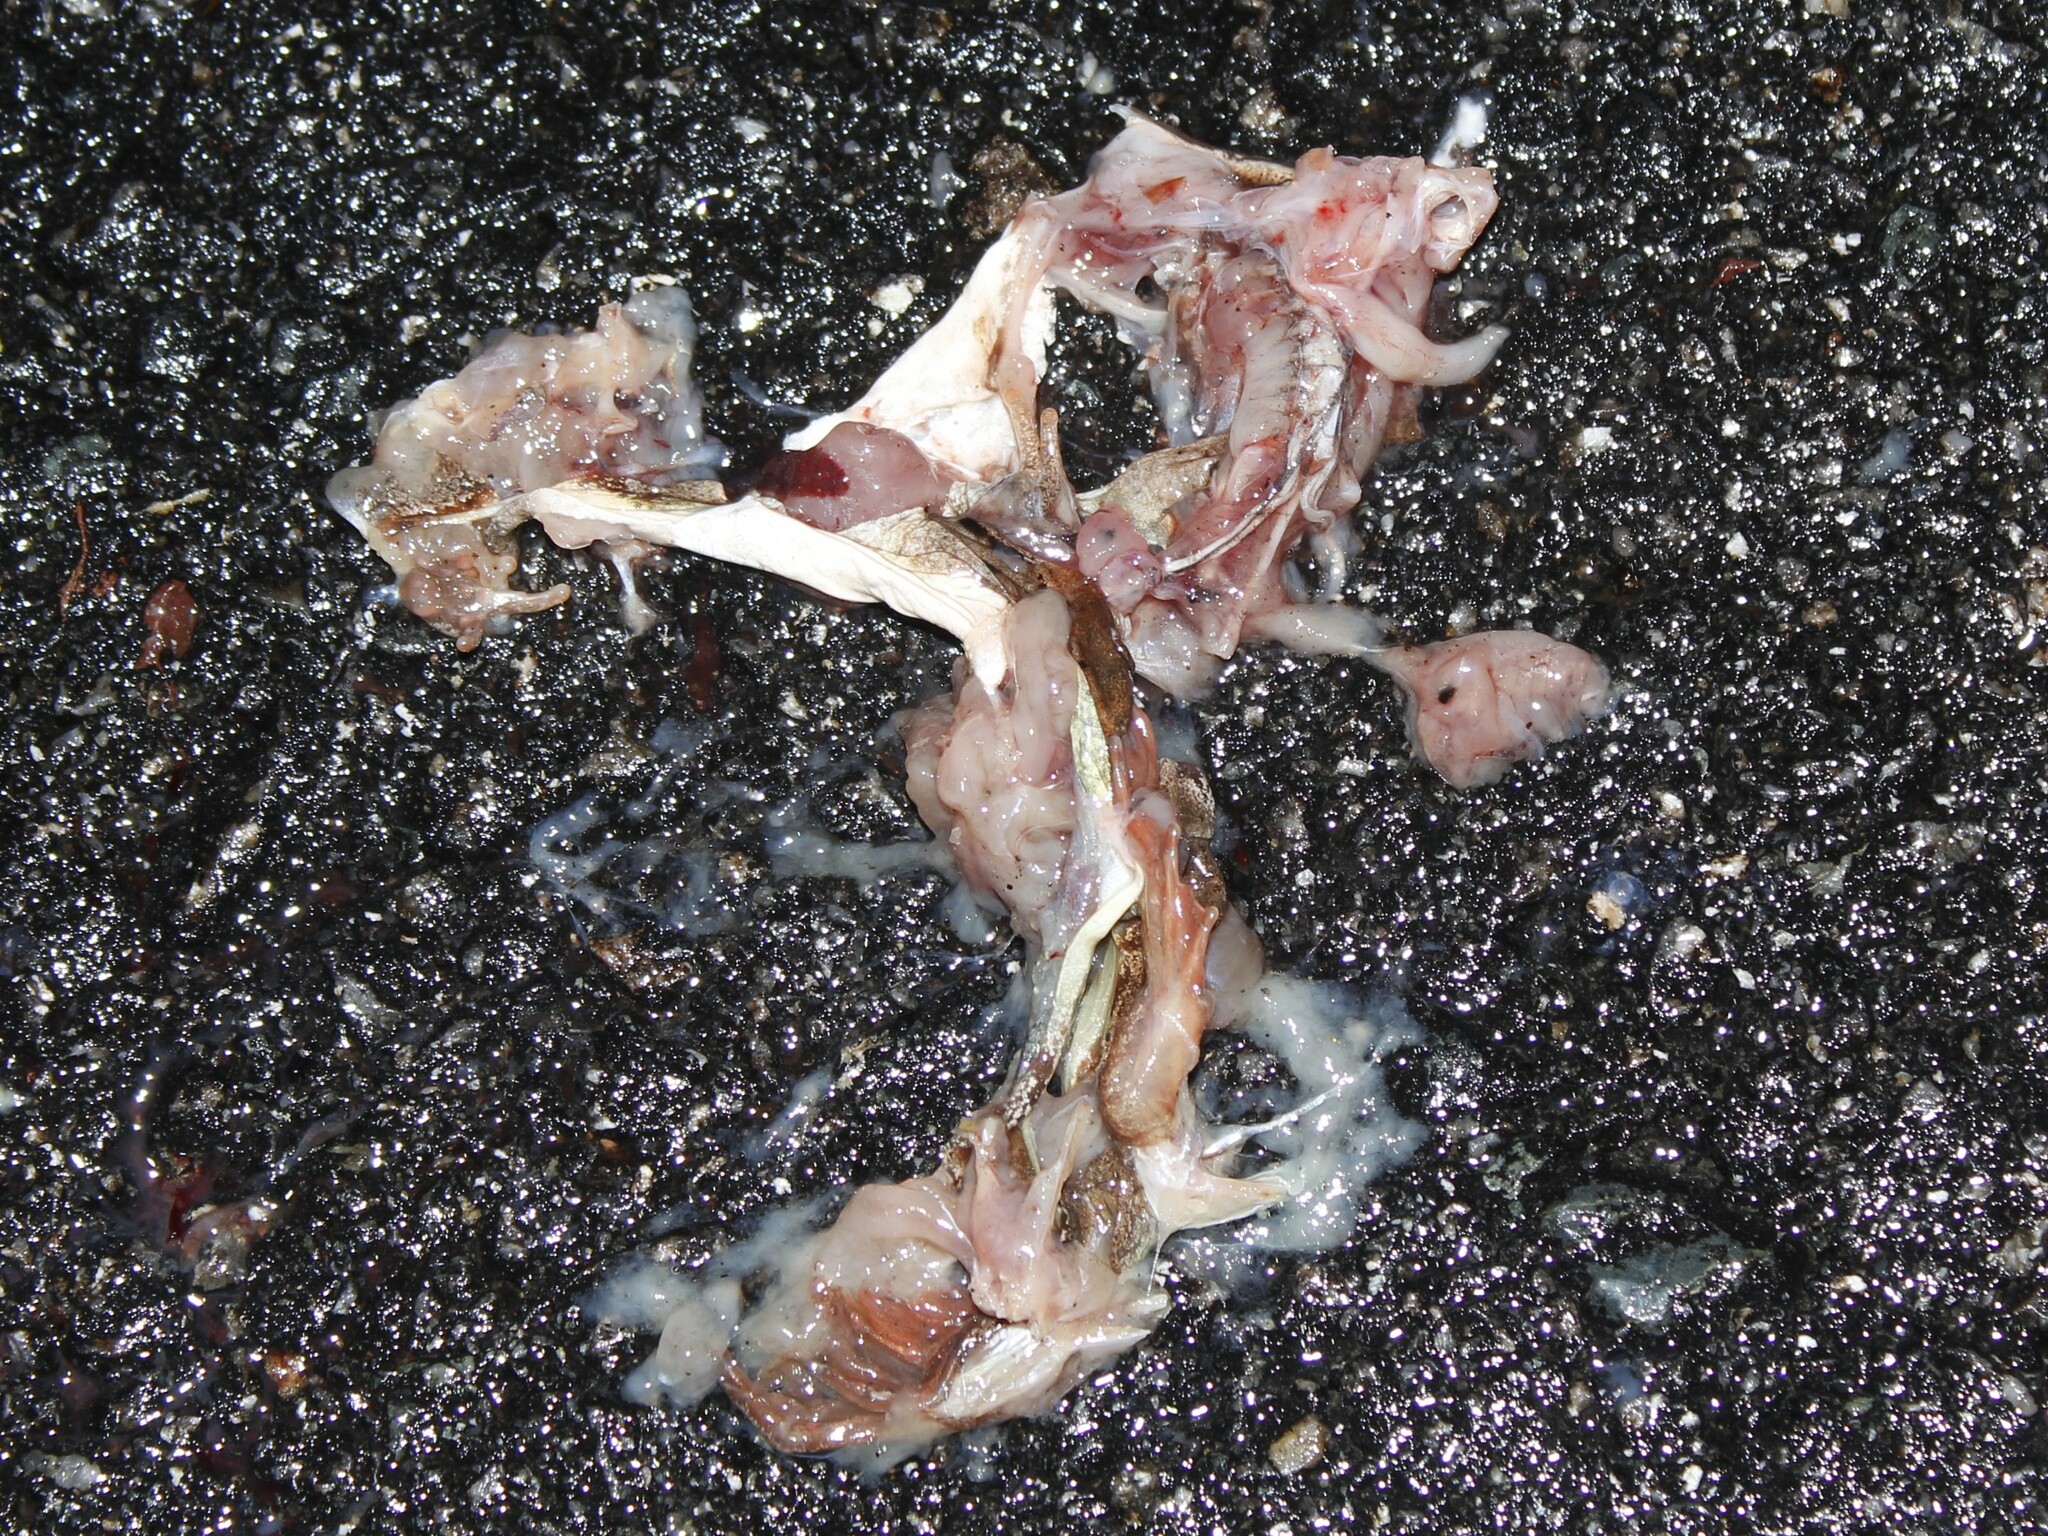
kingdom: Animalia
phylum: Chordata
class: Amphibia
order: Anura
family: Ranidae
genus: Lithobates
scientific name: Lithobates sylvaticus
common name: Wood frog
